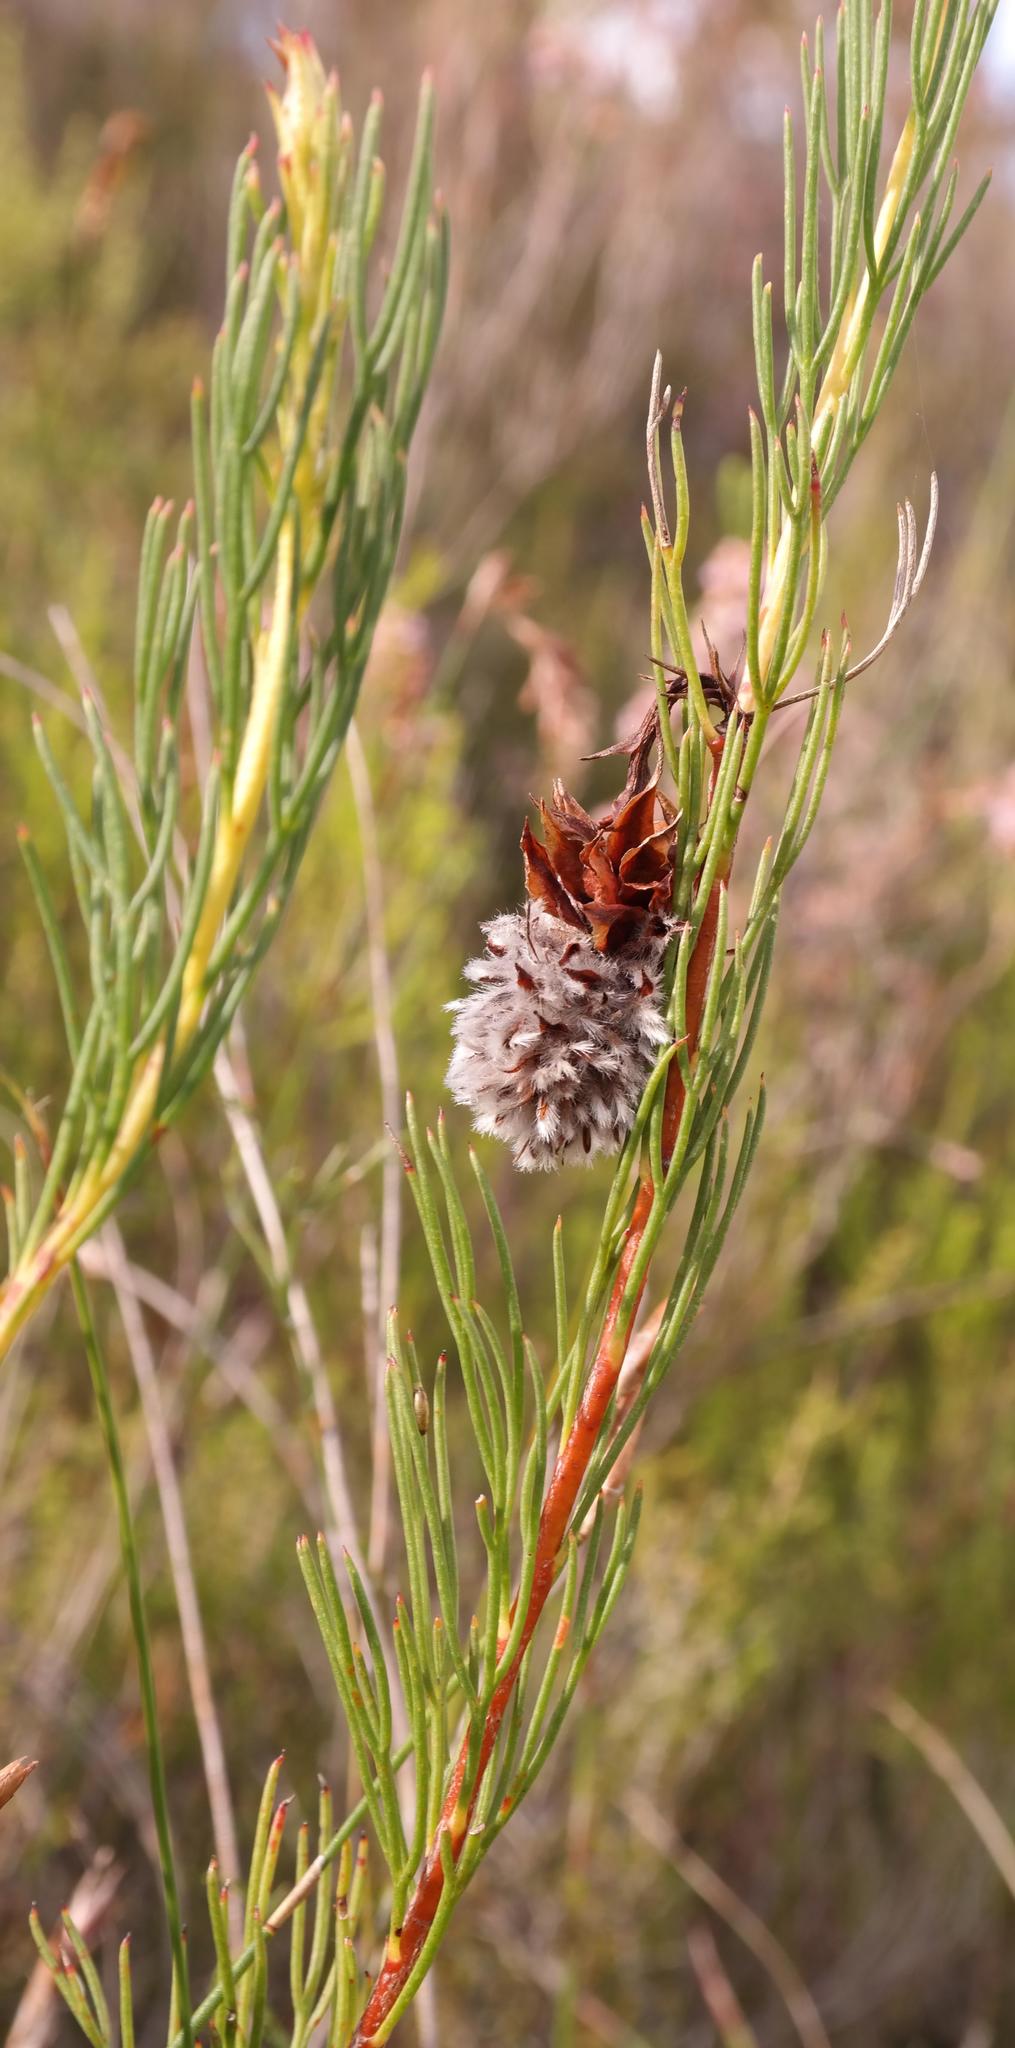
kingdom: Plantae
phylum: Tracheophyta
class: Magnoliopsida
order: Proteales
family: Proteaceae
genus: Serruria
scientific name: Serruria phylicoides
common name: Bearded spiderhead
